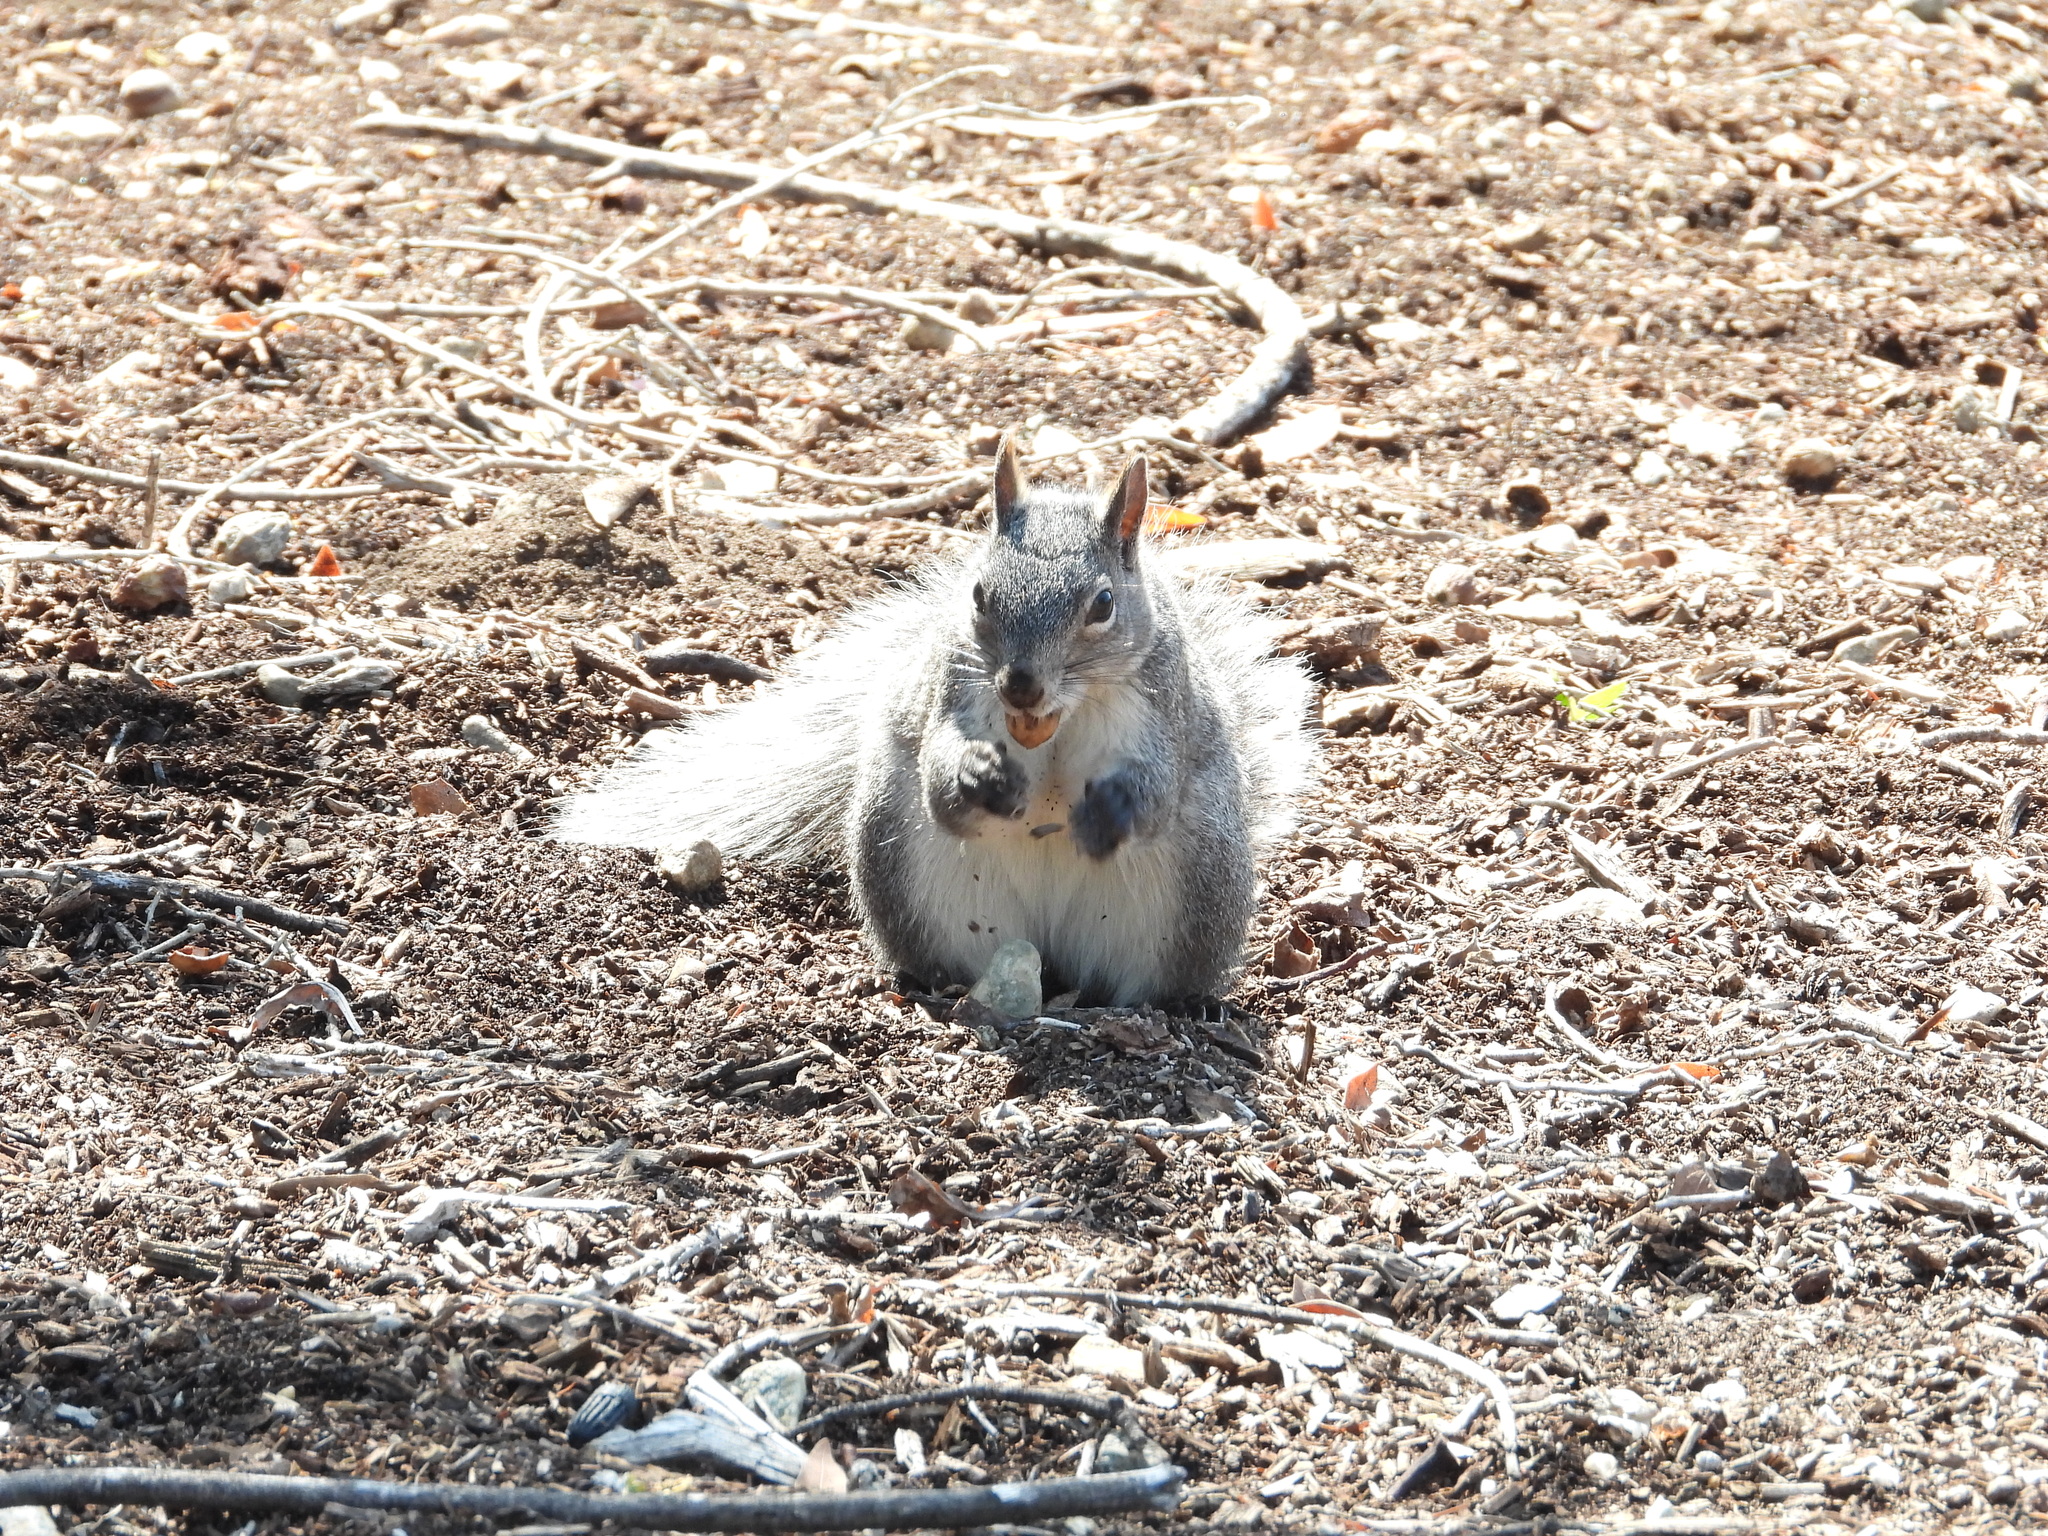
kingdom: Animalia
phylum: Chordata
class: Mammalia
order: Rodentia
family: Sciuridae
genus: Sciurus
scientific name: Sciurus griseus
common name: Western gray squirrel
